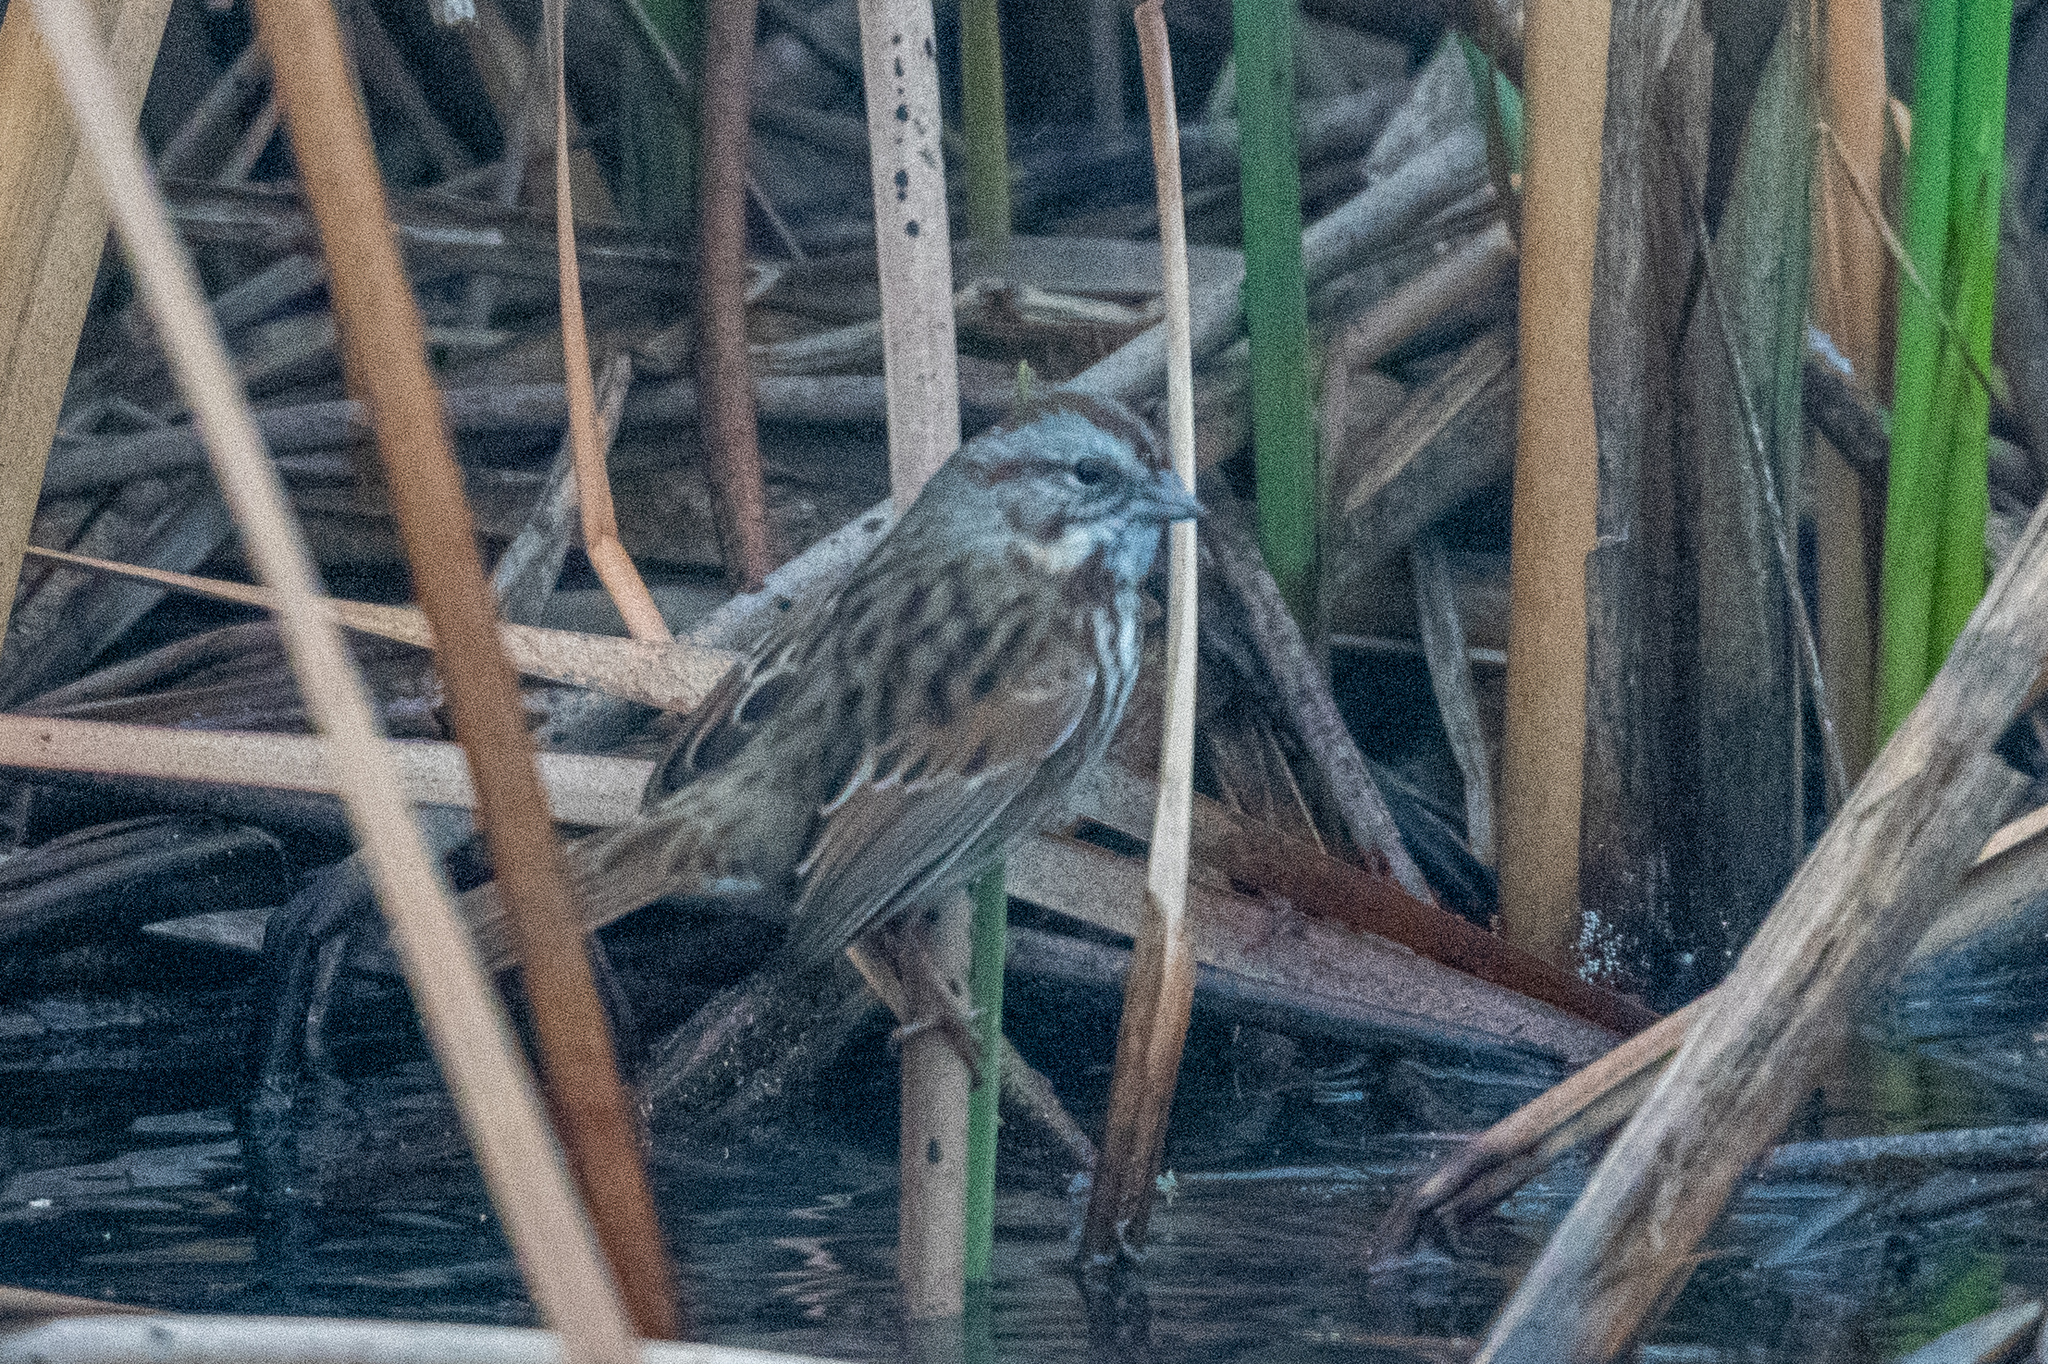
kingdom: Animalia
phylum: Chordata
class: Aves
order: Passeriformes
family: Passerellidae
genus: Melospiza
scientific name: Melospiza melodia
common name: Song sparrow
